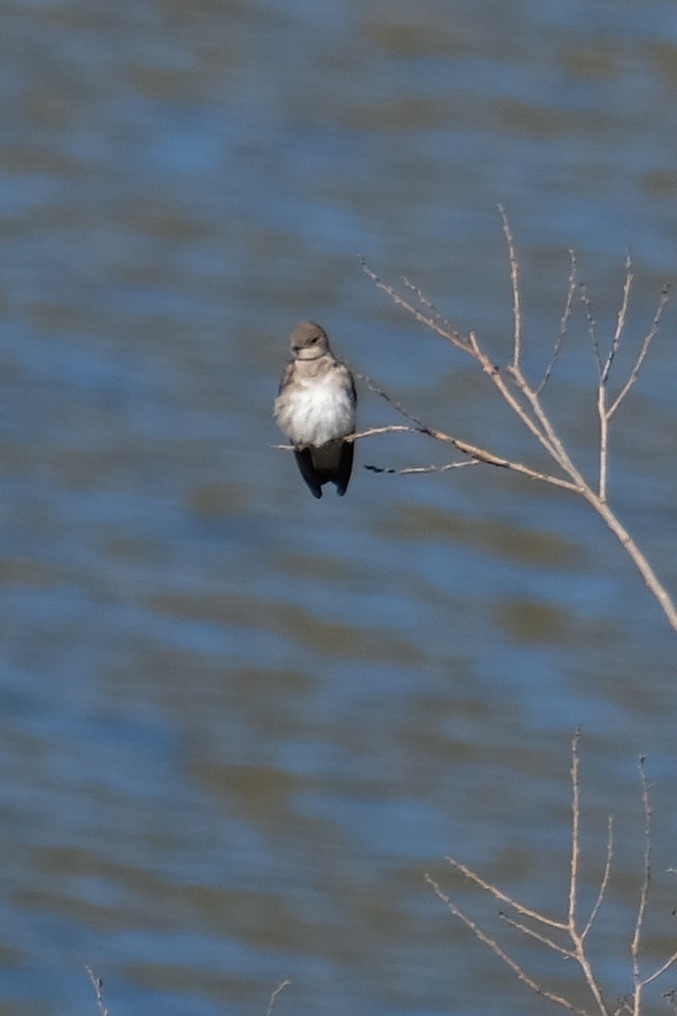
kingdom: Animalia
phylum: Chordata
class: Aves
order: Passeriformes
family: Hirundinidae
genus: Stelgidopteryx
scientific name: Stelgidopteryx serripennis
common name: Northern rough-winged swallow
